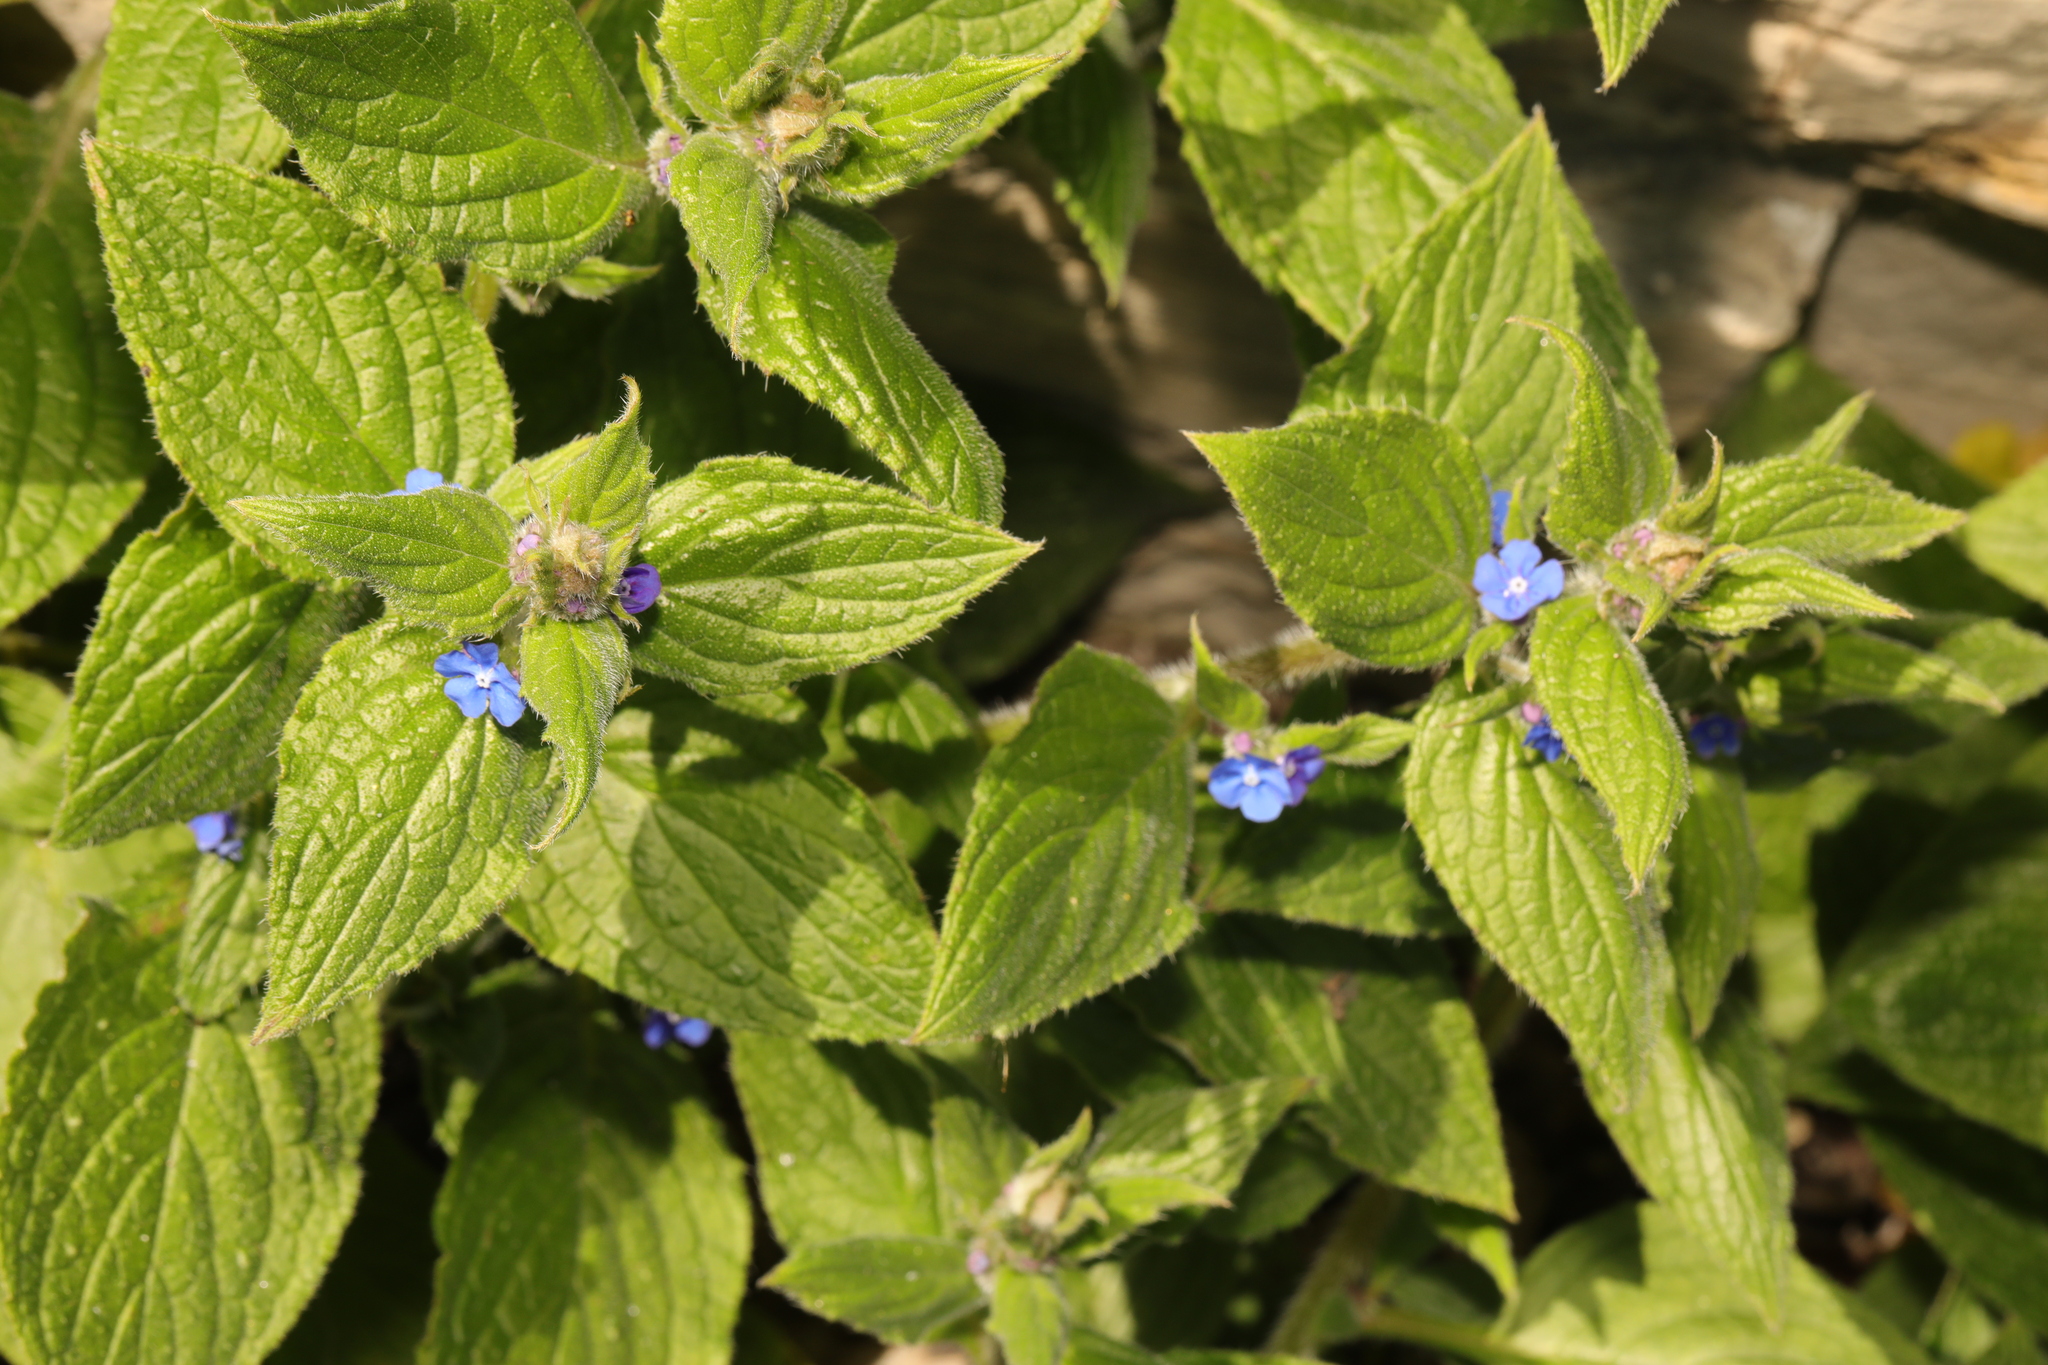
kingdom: Plantae
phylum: Tracheophyta
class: Magnoliopsida
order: Boraginales
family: Boraginaceae
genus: Pentaglottis
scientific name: Pentaglottis sempervirens
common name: Green alkanet
